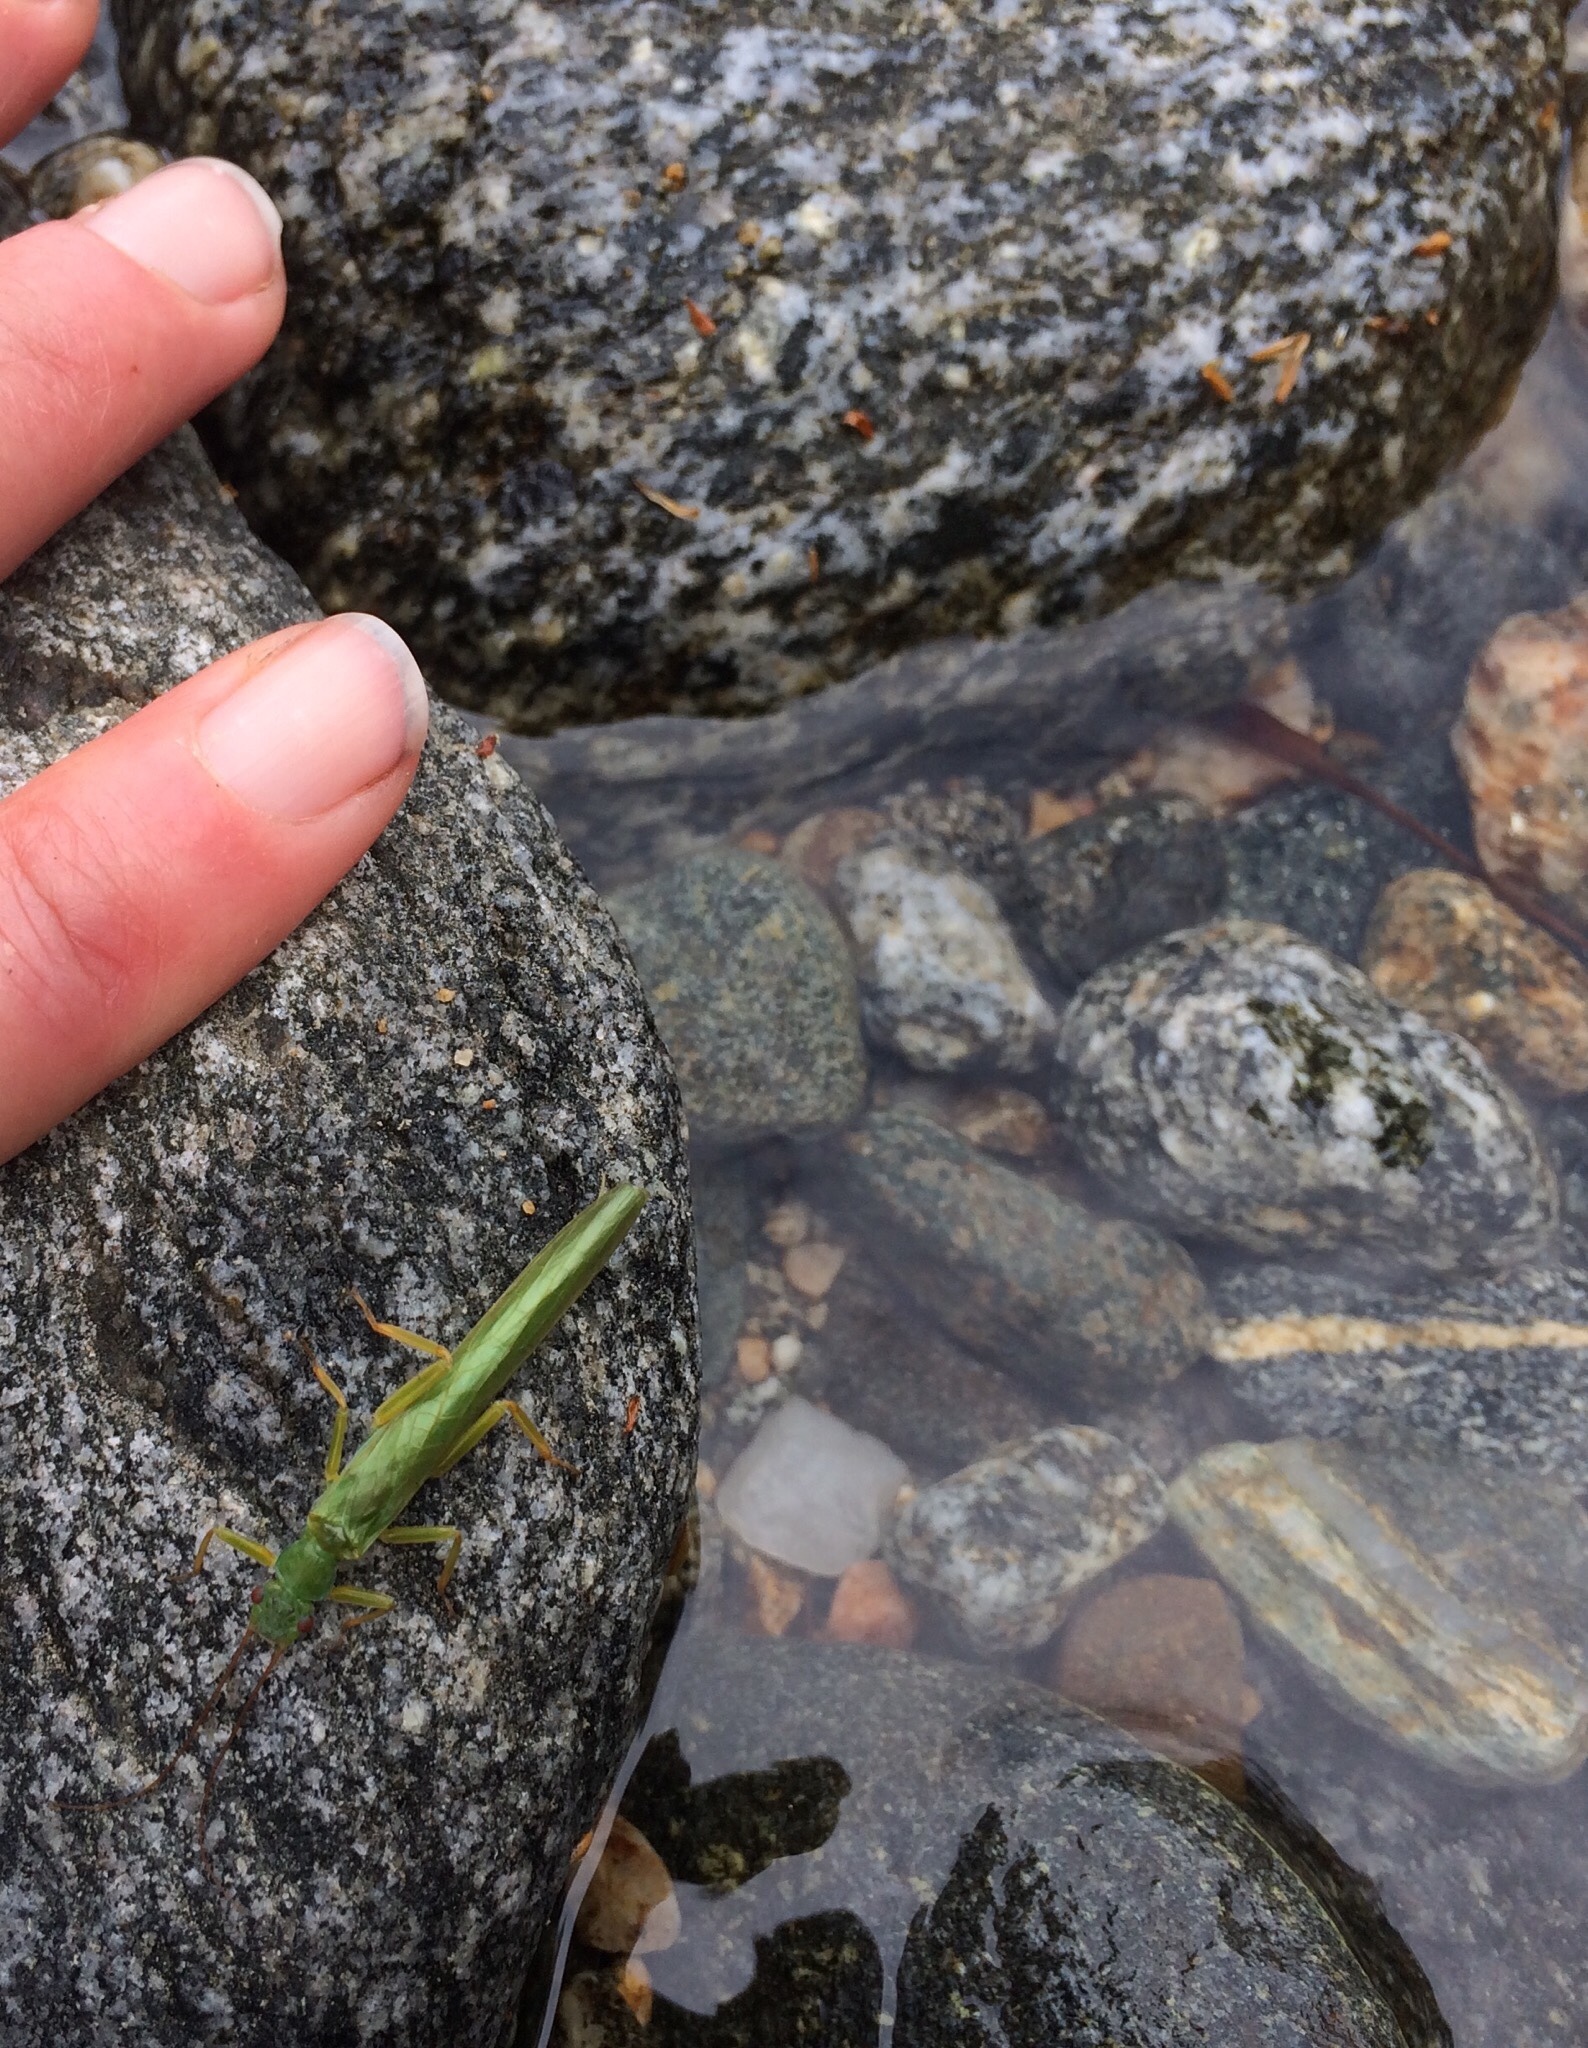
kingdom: Animalia
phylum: Arthropoda
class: Insecta
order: Plecoptera
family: Eustheniidae
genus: Stenoperla
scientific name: Stenoperla prasina
